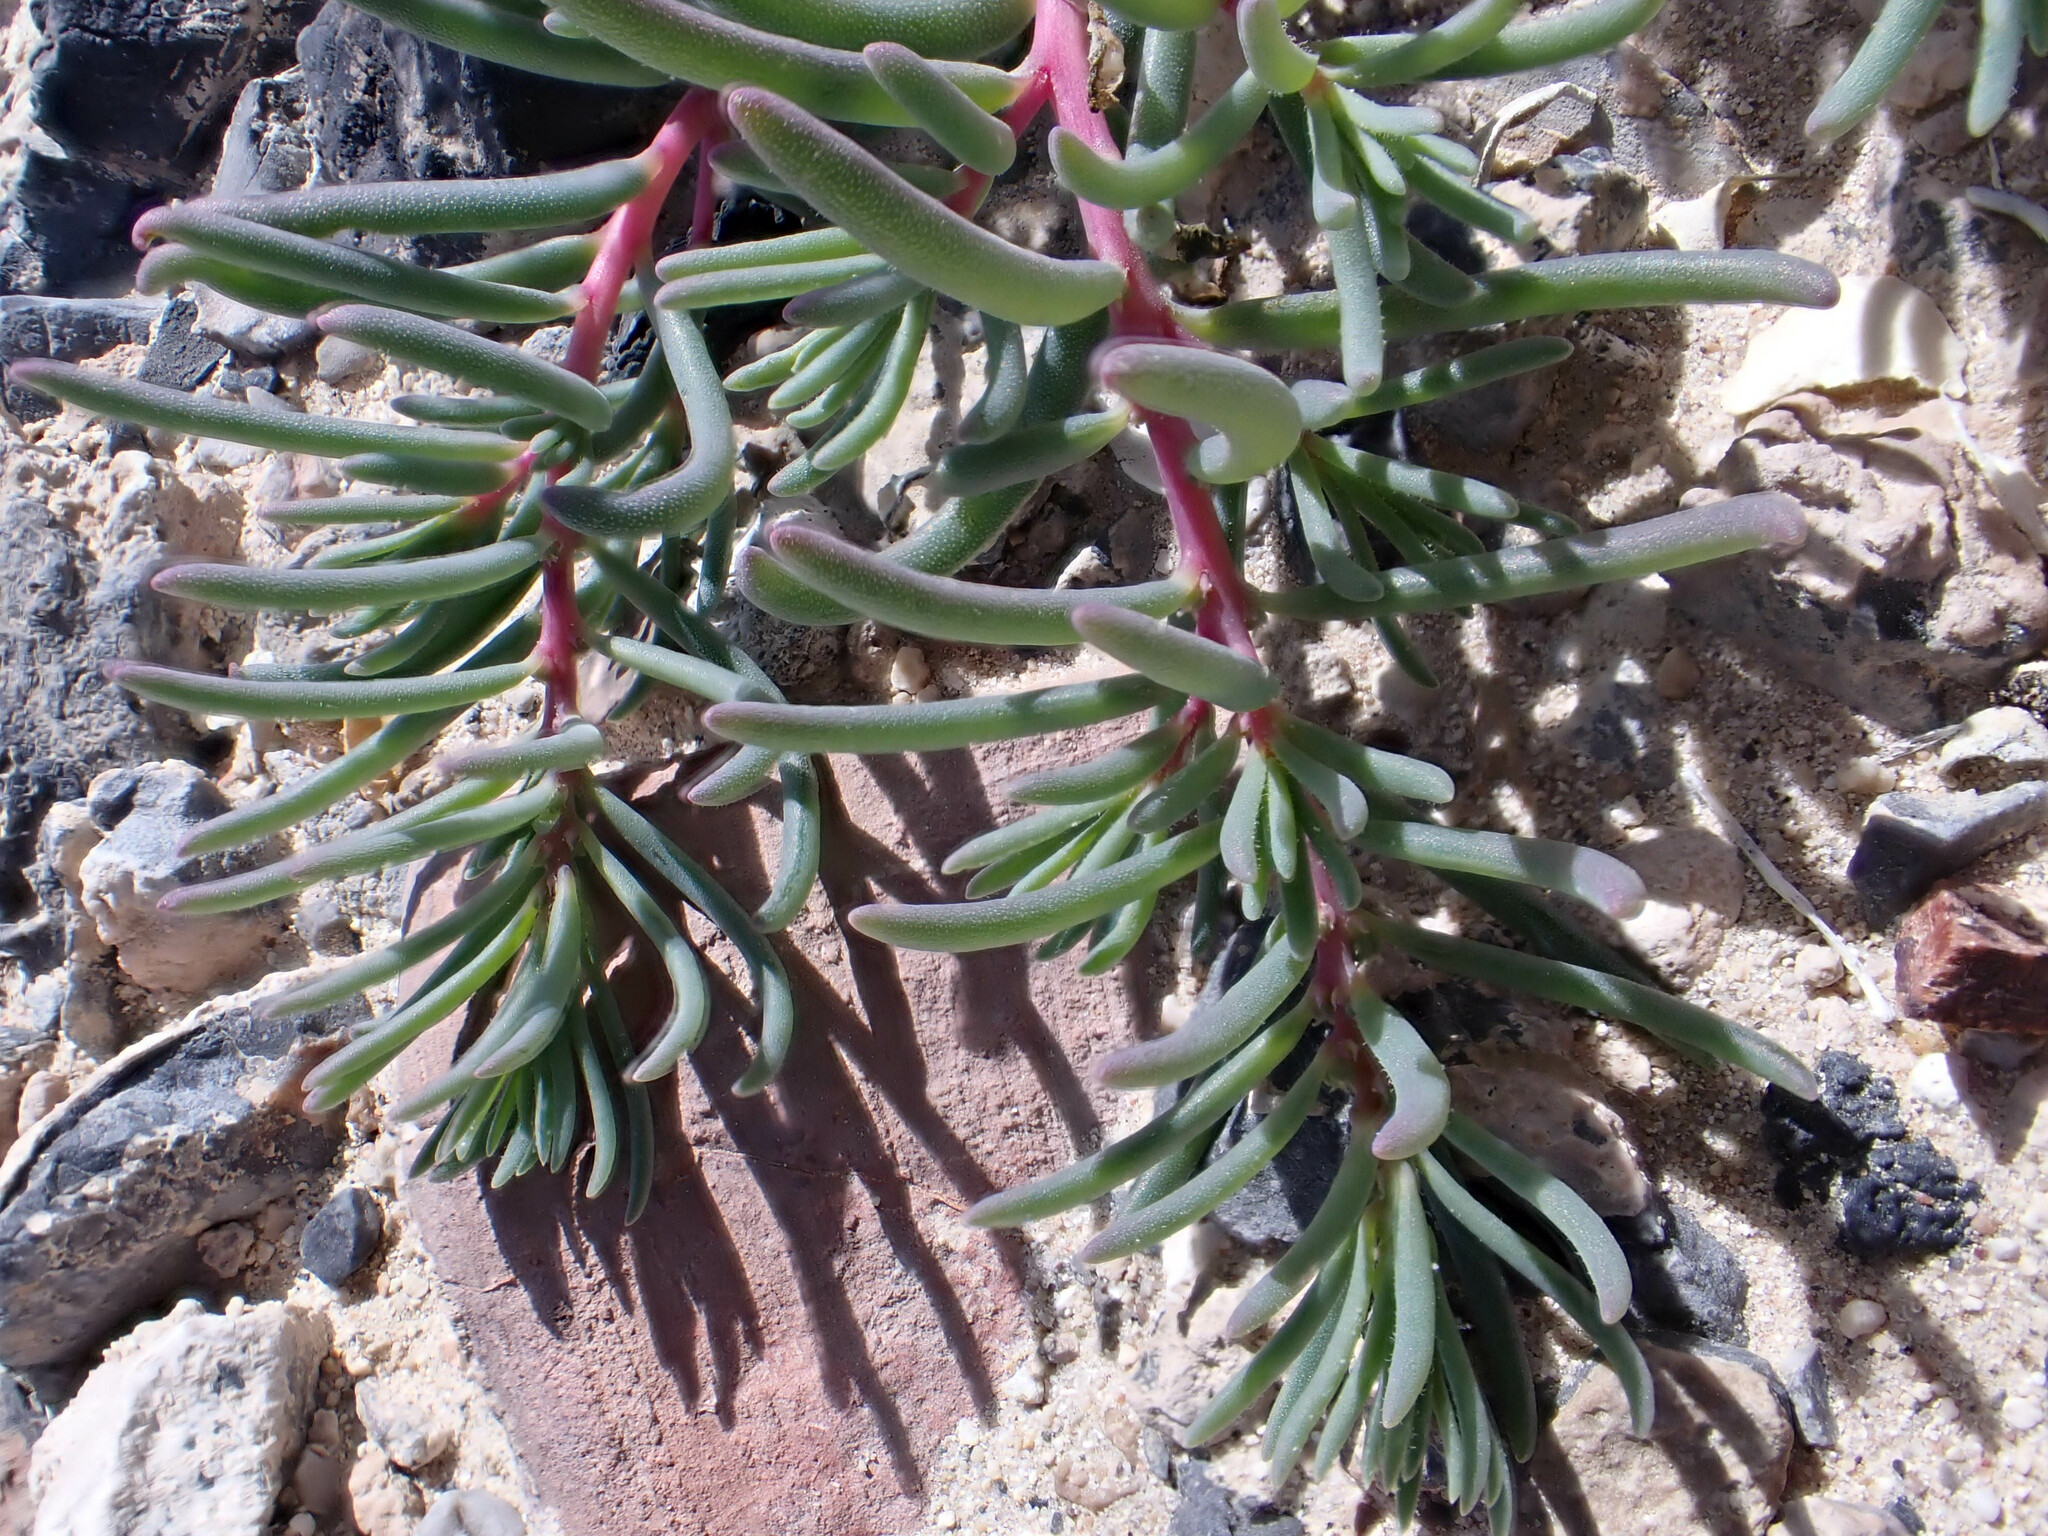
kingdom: Plantae
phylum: Tracheophyta
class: Magnoliopsida
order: Caryophyllales
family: Amaranthaceae
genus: Suaeda
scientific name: Suaeda nigra
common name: Bush seepweed
